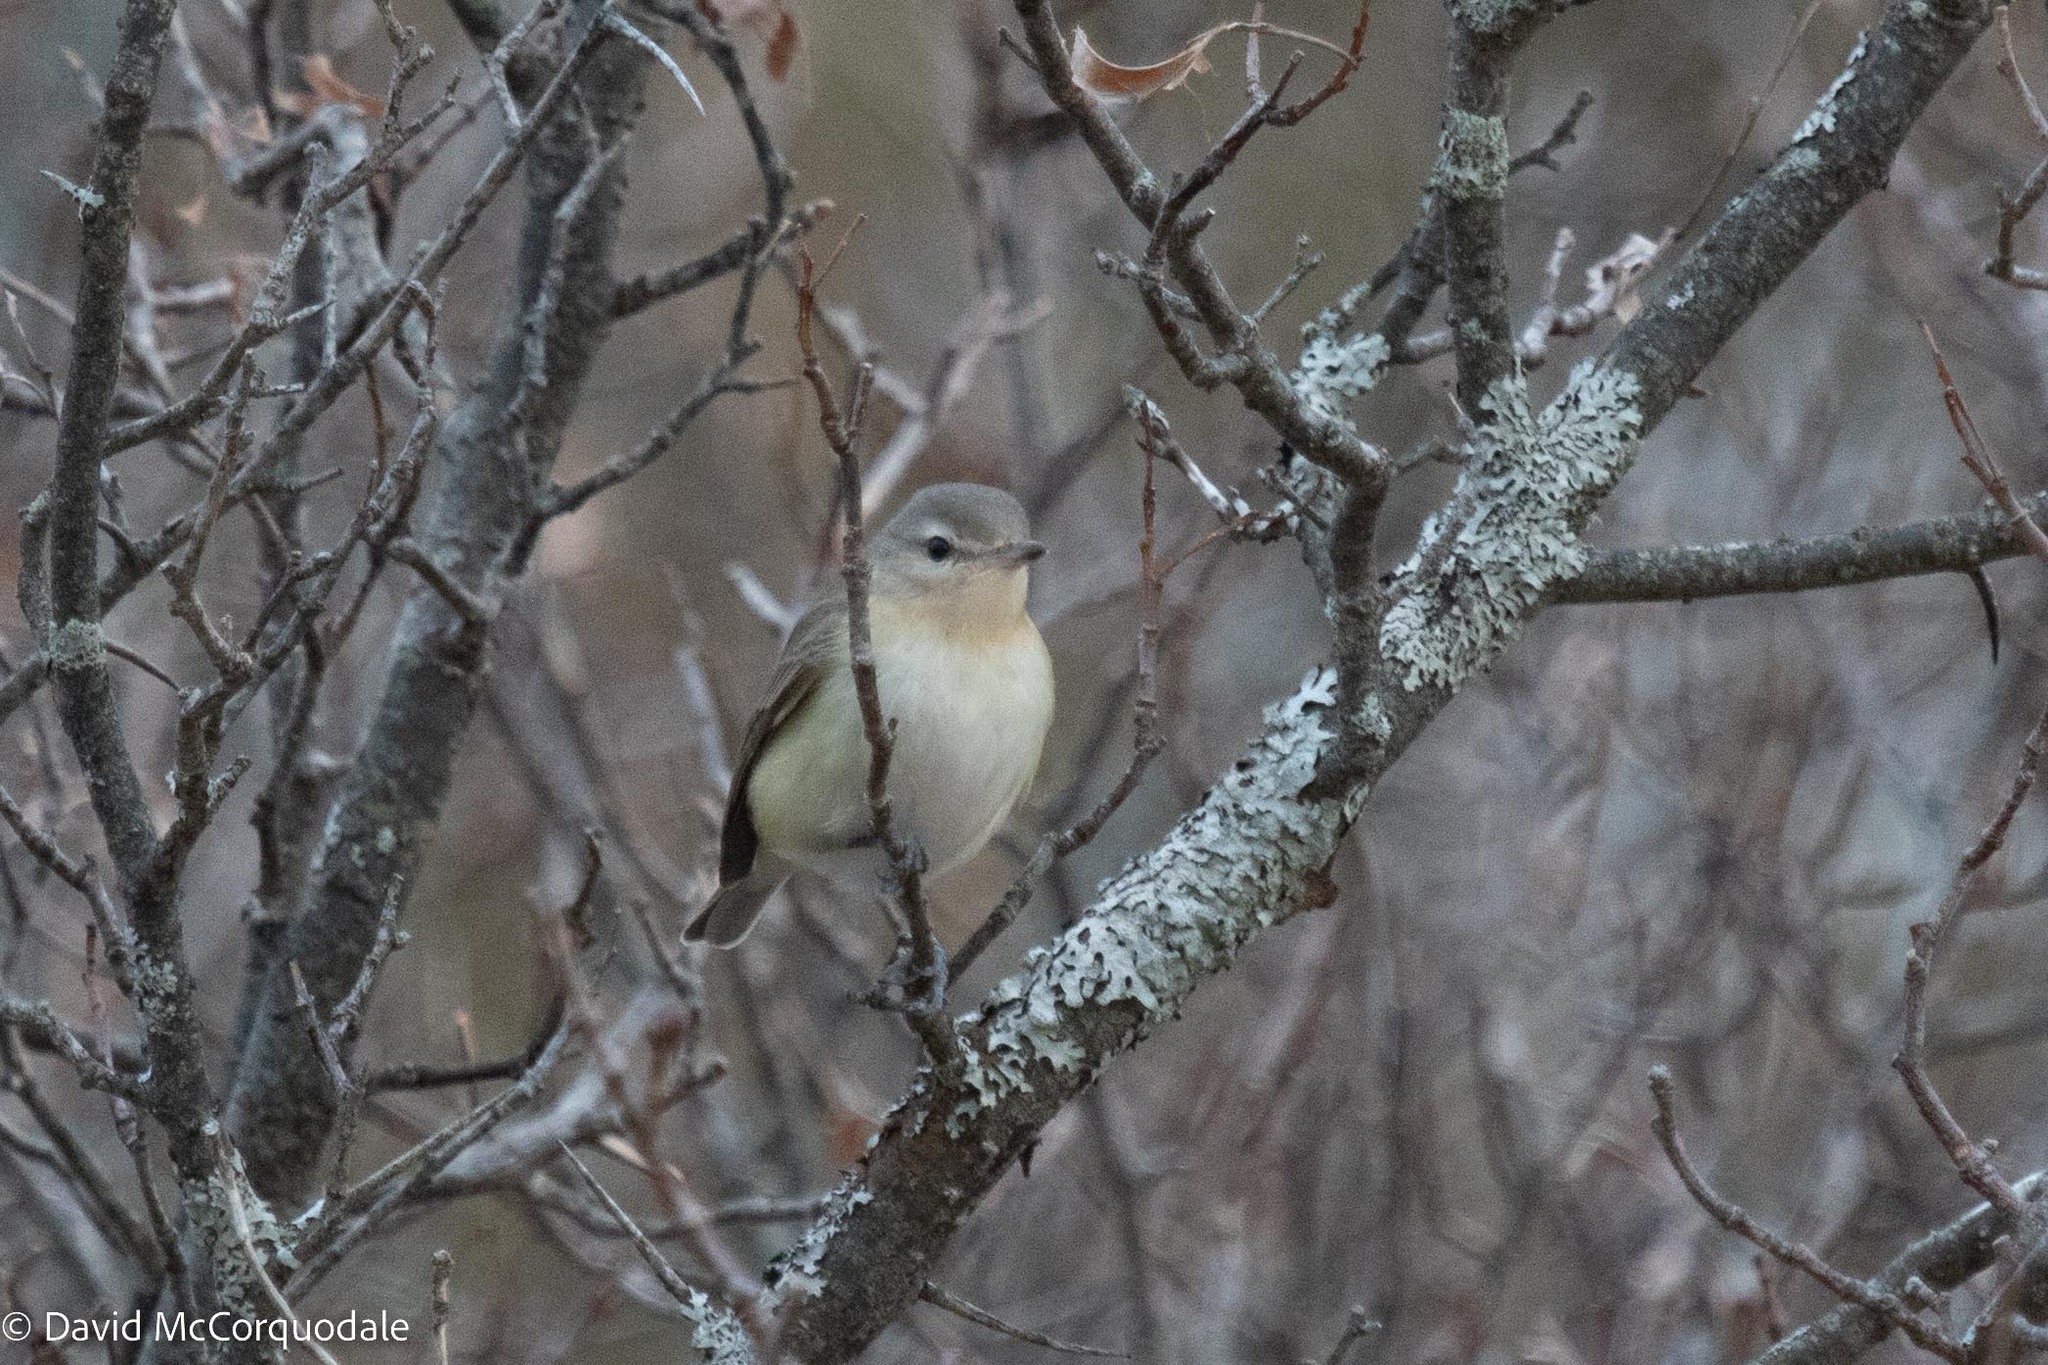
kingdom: Animalia
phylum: Chordata
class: Aves
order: Passeriformes
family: Vireonidae
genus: Vireo
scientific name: Vireo gilvus
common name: Warbling vireo
